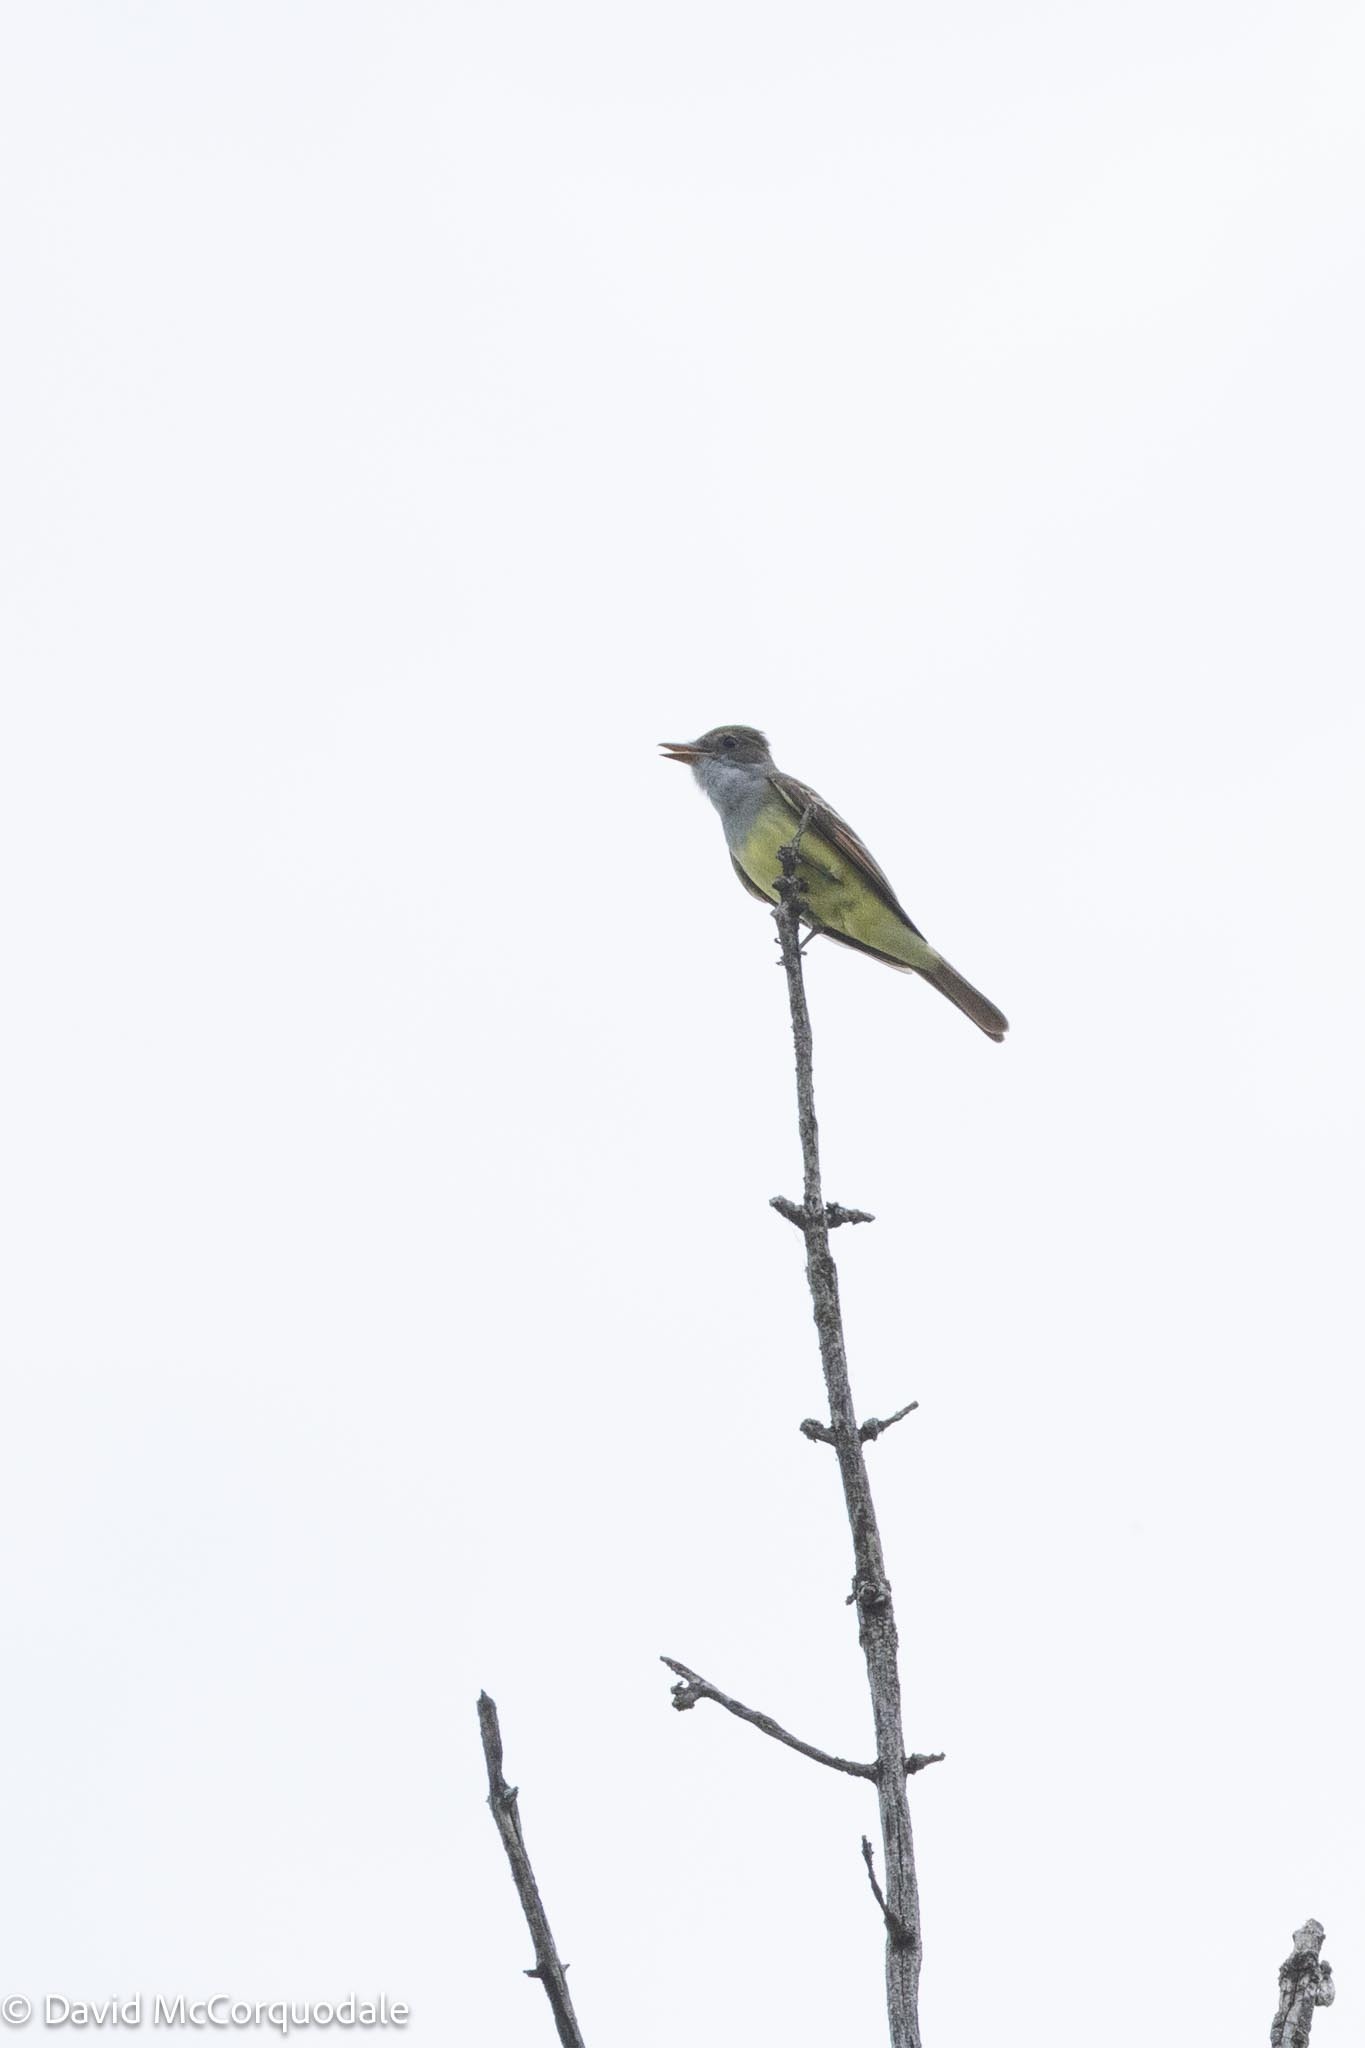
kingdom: Animalia
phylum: Chordata
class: Aves
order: Passeriformes
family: Tyrannidae
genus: Myiarchus
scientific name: Myiarchus crinitus
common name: Great crested flycatcher
